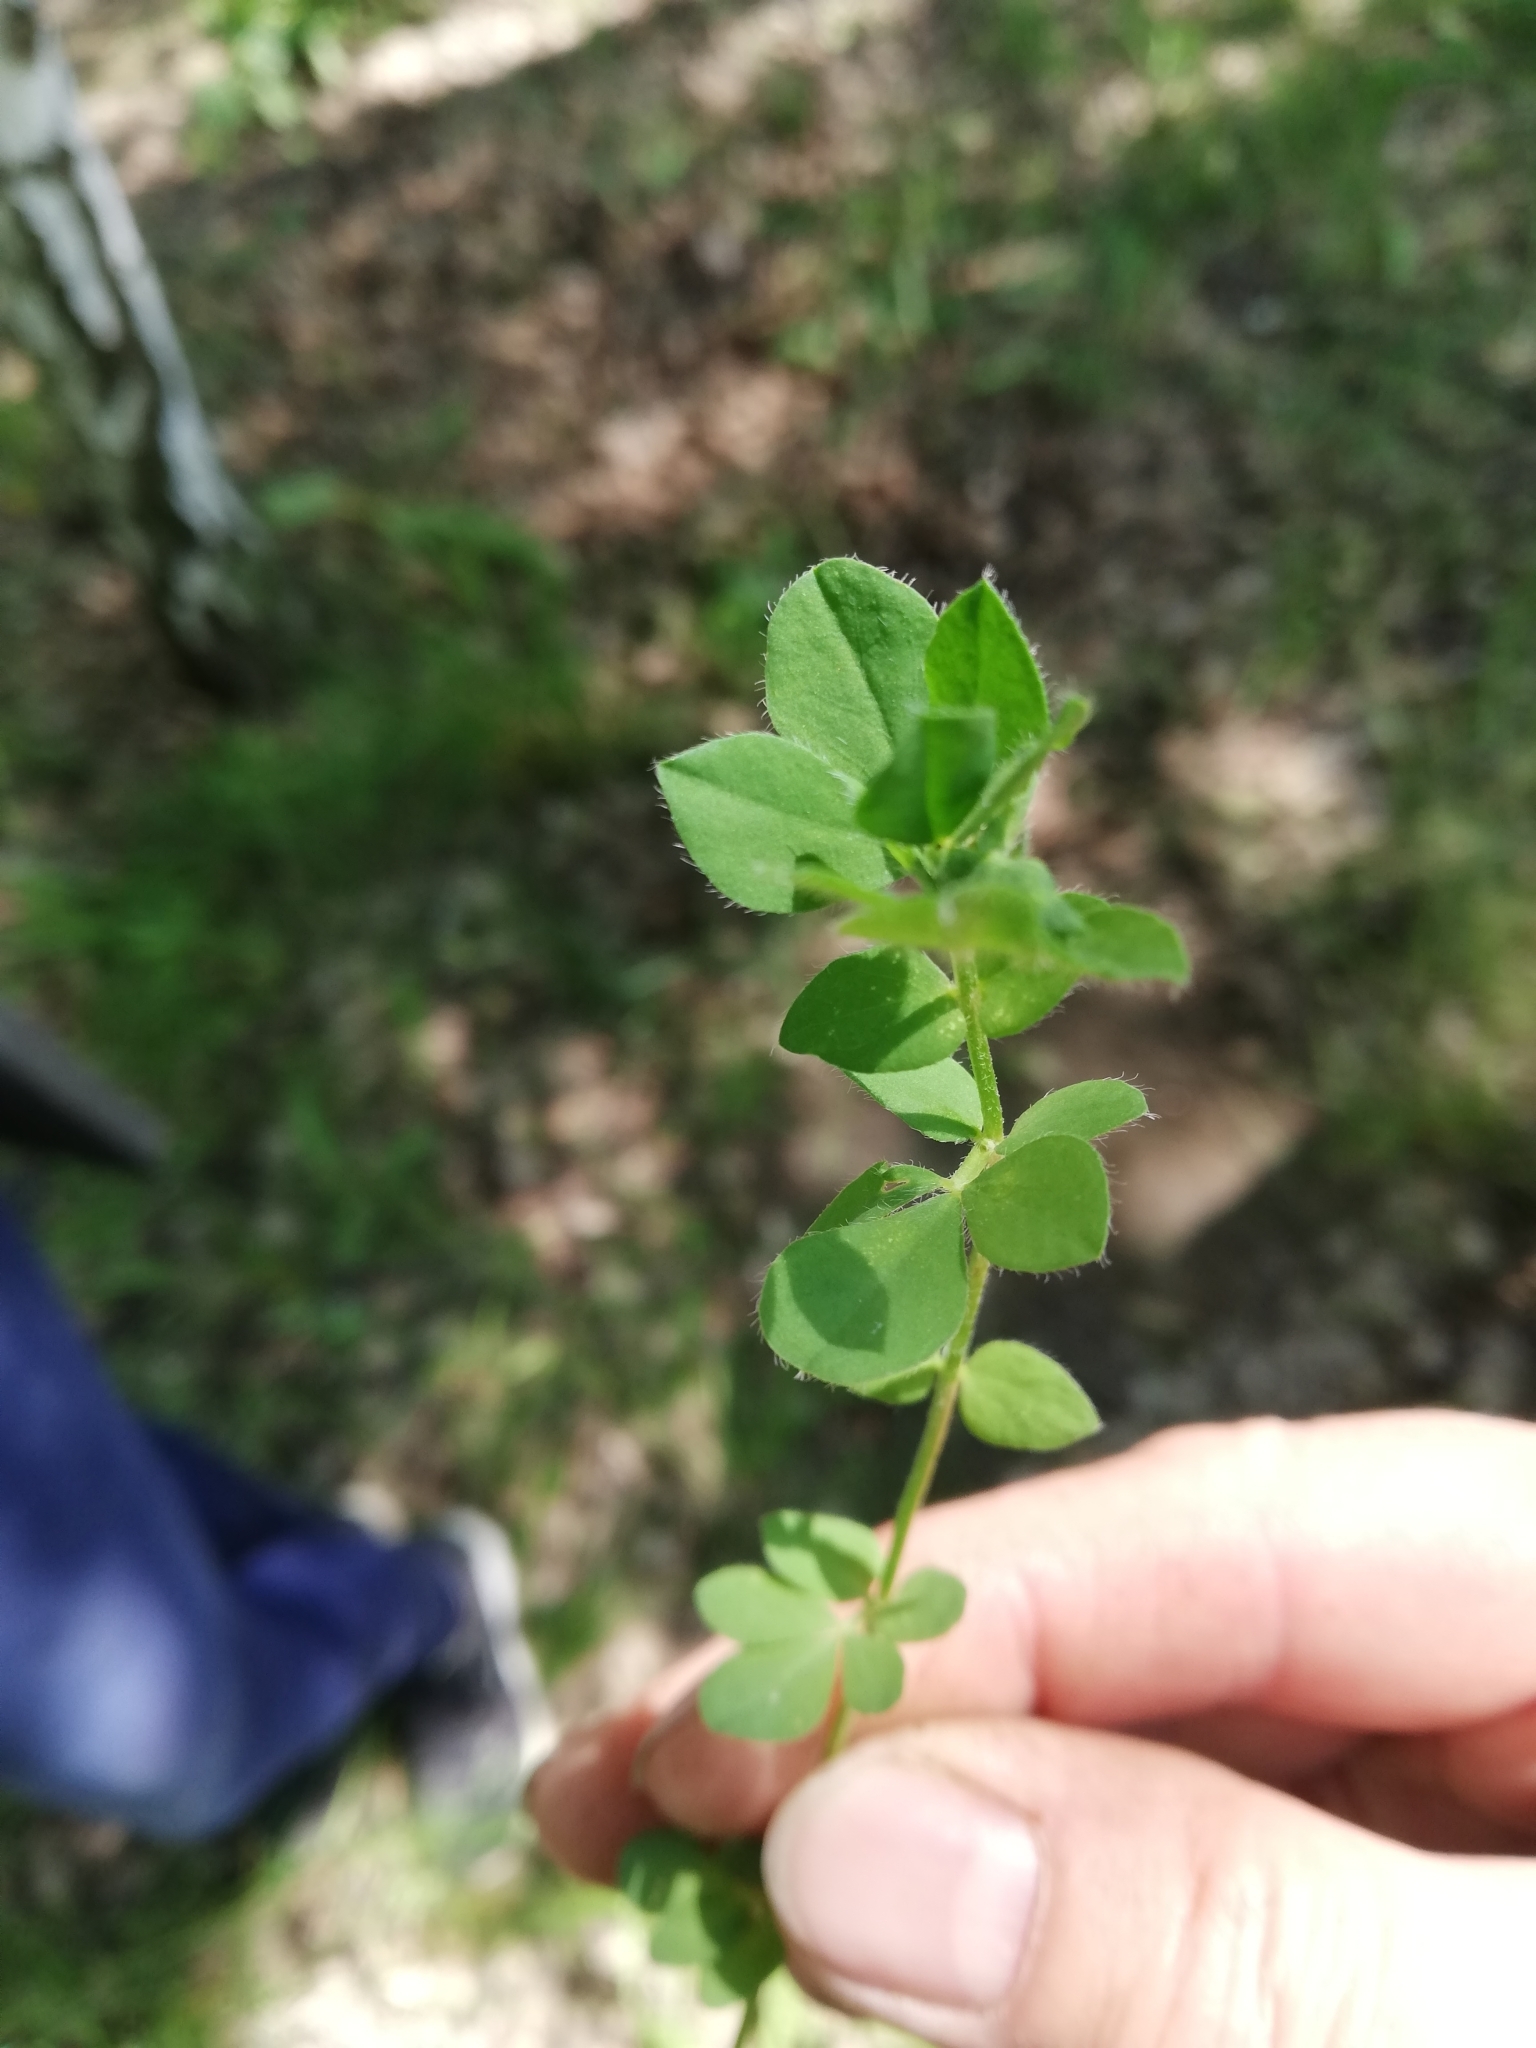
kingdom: Plantae
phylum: Tracheophyta
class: Magnoliopsida
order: Fabales
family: Fabaceae
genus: Lotus
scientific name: Lotus corniculatus
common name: Common bird's-foot-trefoil
